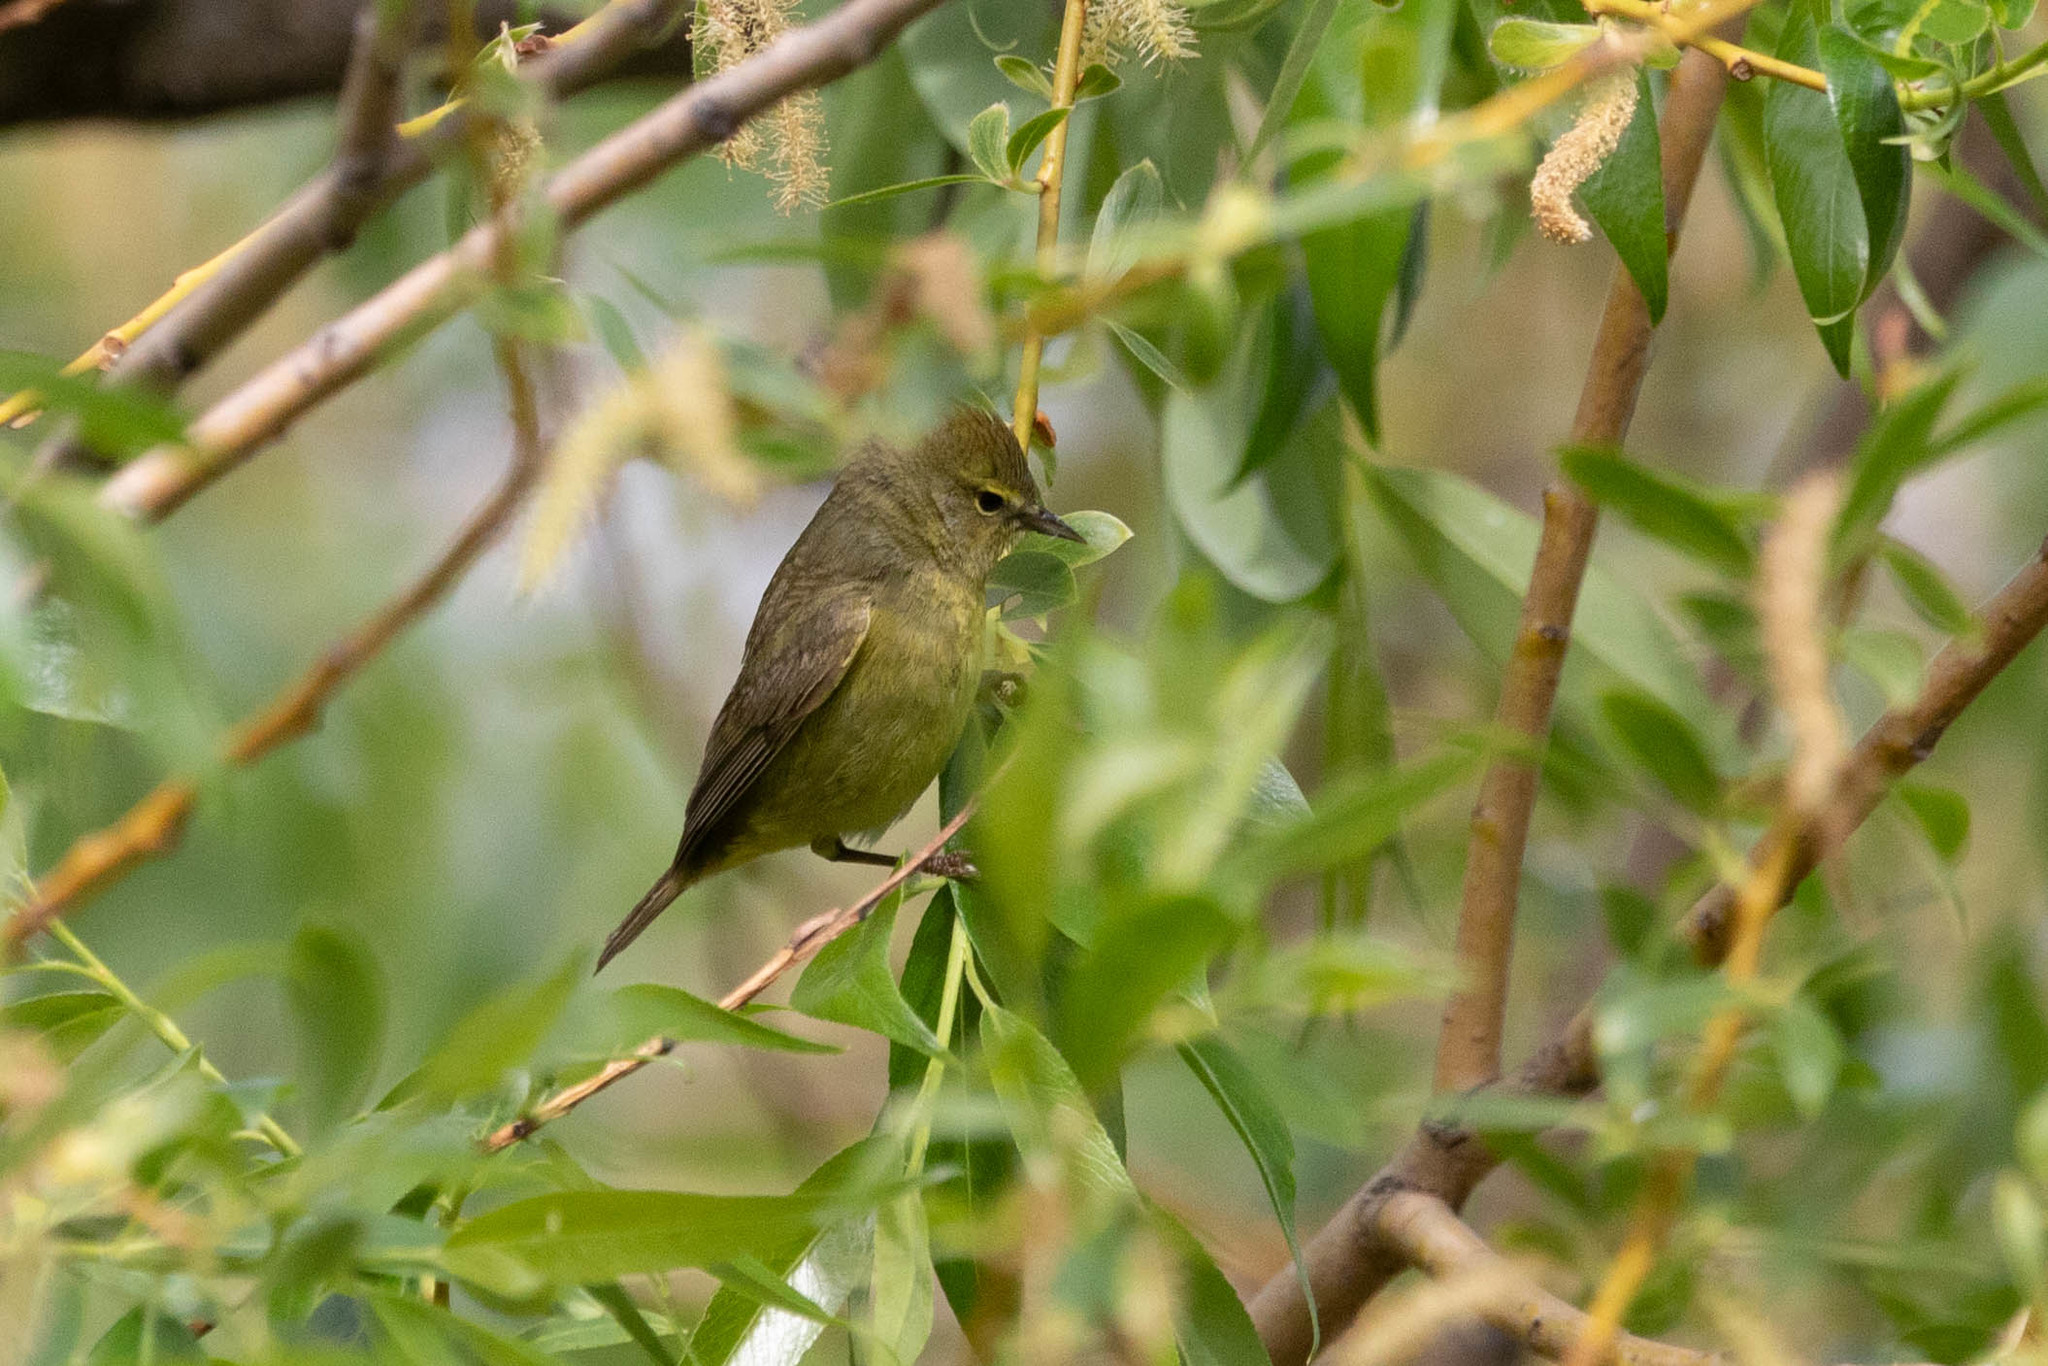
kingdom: Animalia
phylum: Chordata
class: Aves
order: Passeriformes
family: Parulidae
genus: Leiothlypis
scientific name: Leiothlypis celata
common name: Orange-crowned warbler
